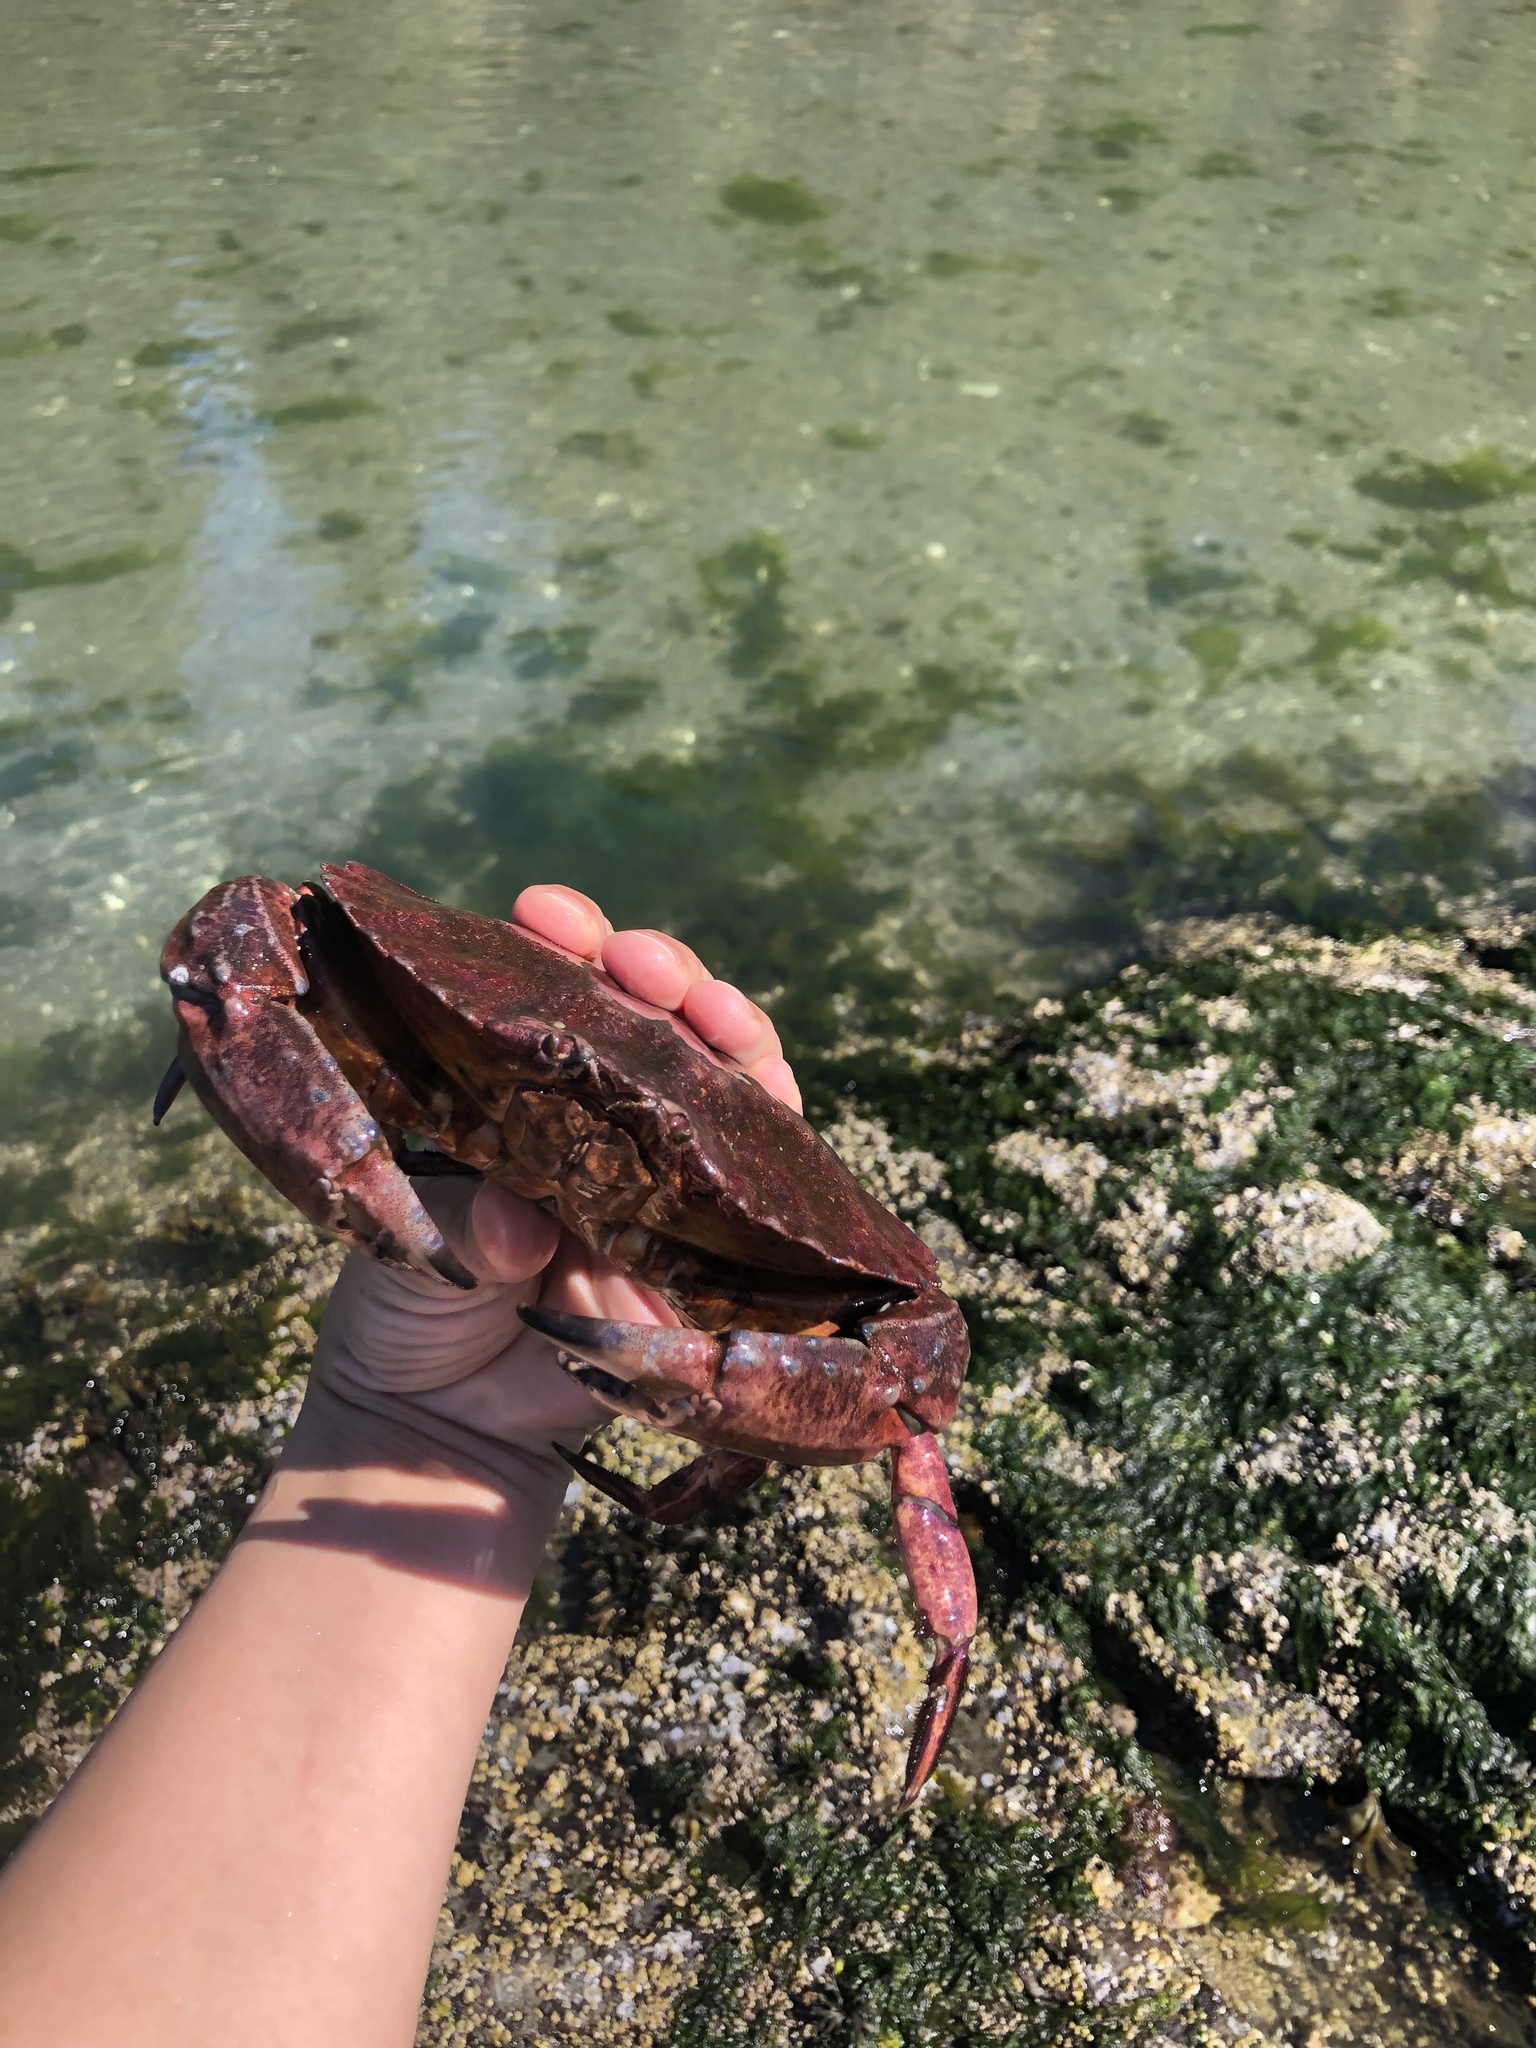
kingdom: Animalia
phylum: Arthropoda
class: Malacostraca
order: Decapoda
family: Cancridae
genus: Cancer
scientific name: Cancer productus
